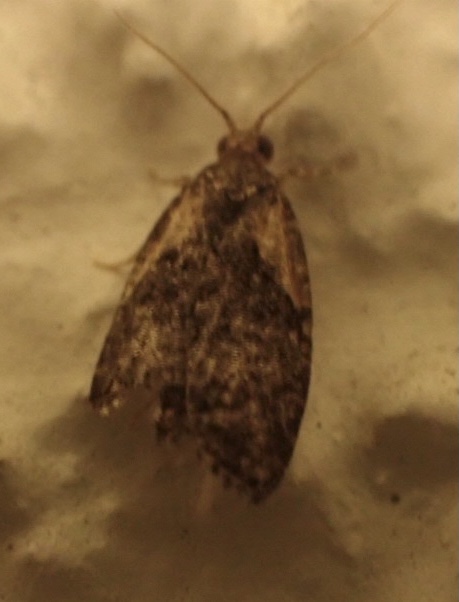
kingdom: Animalia
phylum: Arthropoda
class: Insecta
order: Lepidoptera
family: Tortricidae
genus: Capua
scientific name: Capua intractana
